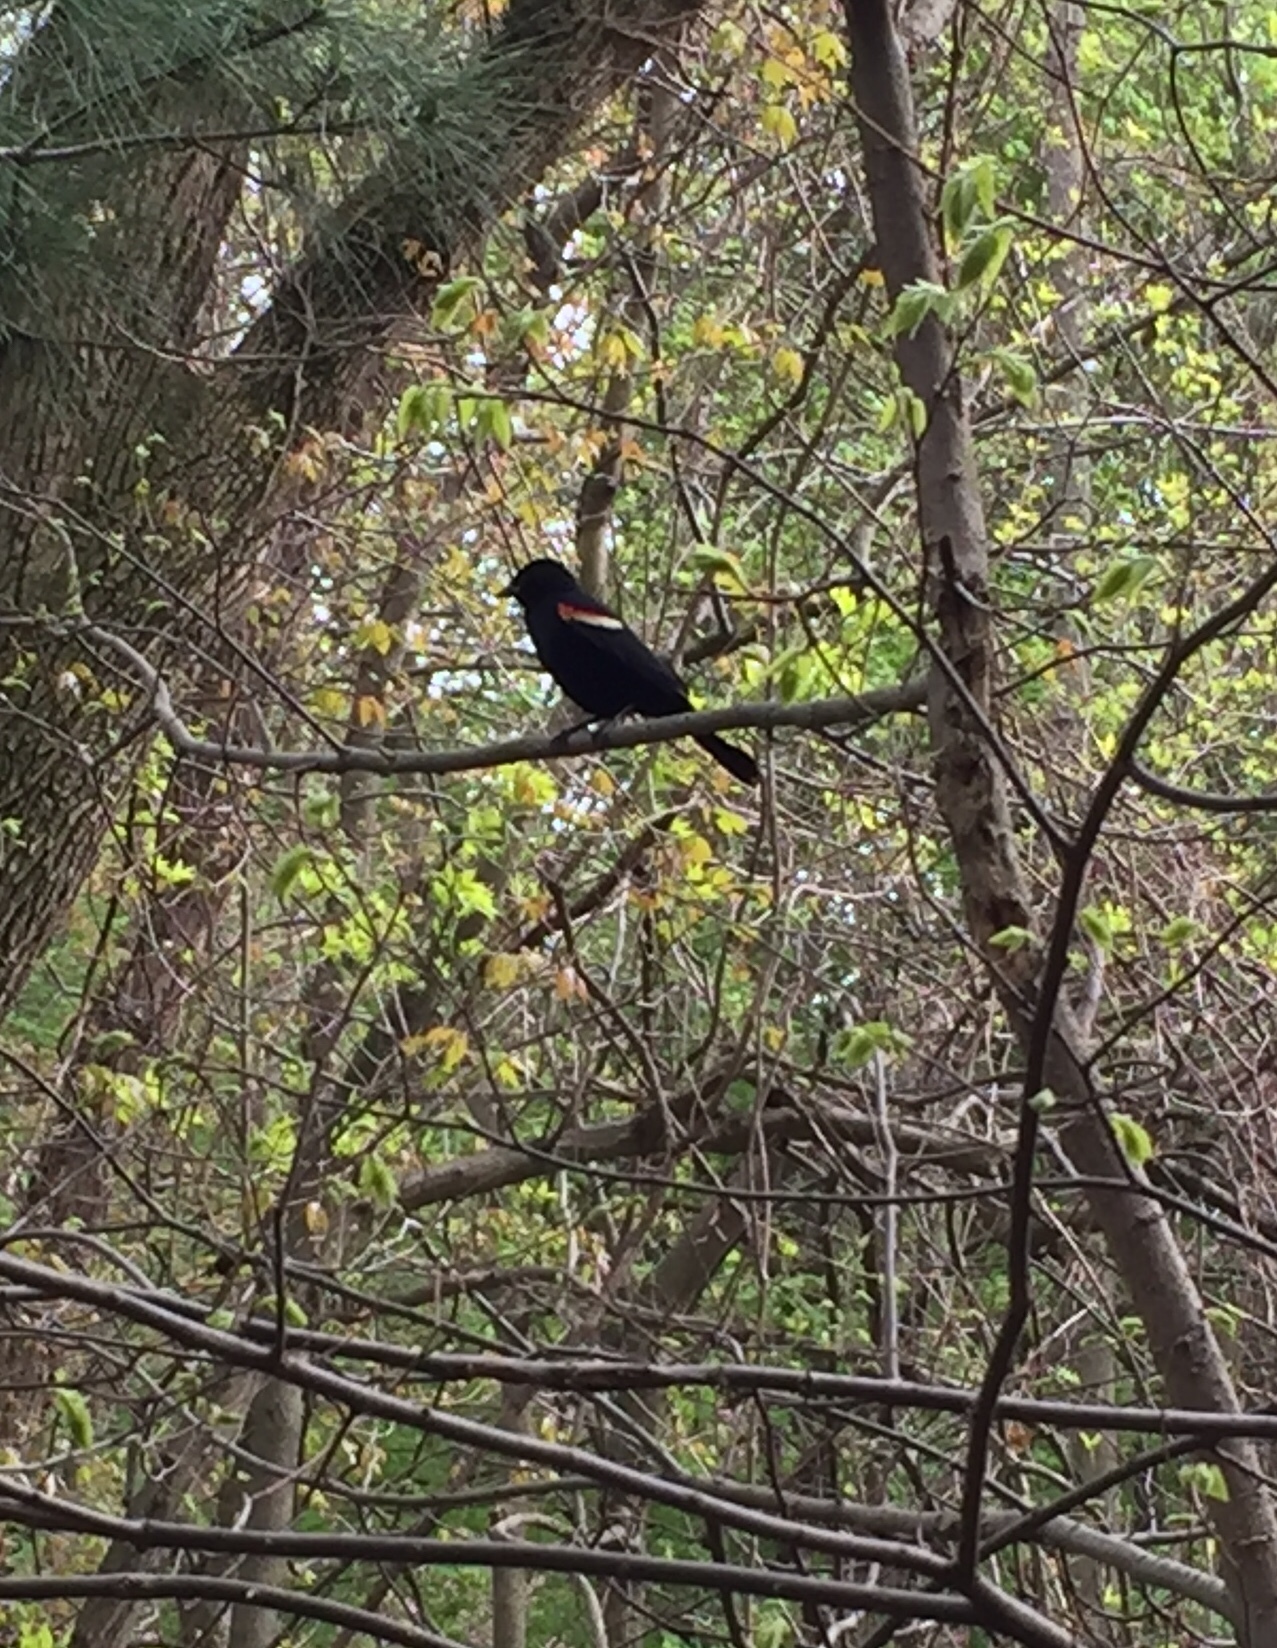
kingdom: Animalia
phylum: Chordata
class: Aves
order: Passeriformes
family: Icteridae
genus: Agelaius
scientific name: Agelaius phoeniceus
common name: Red-winged blackbird
